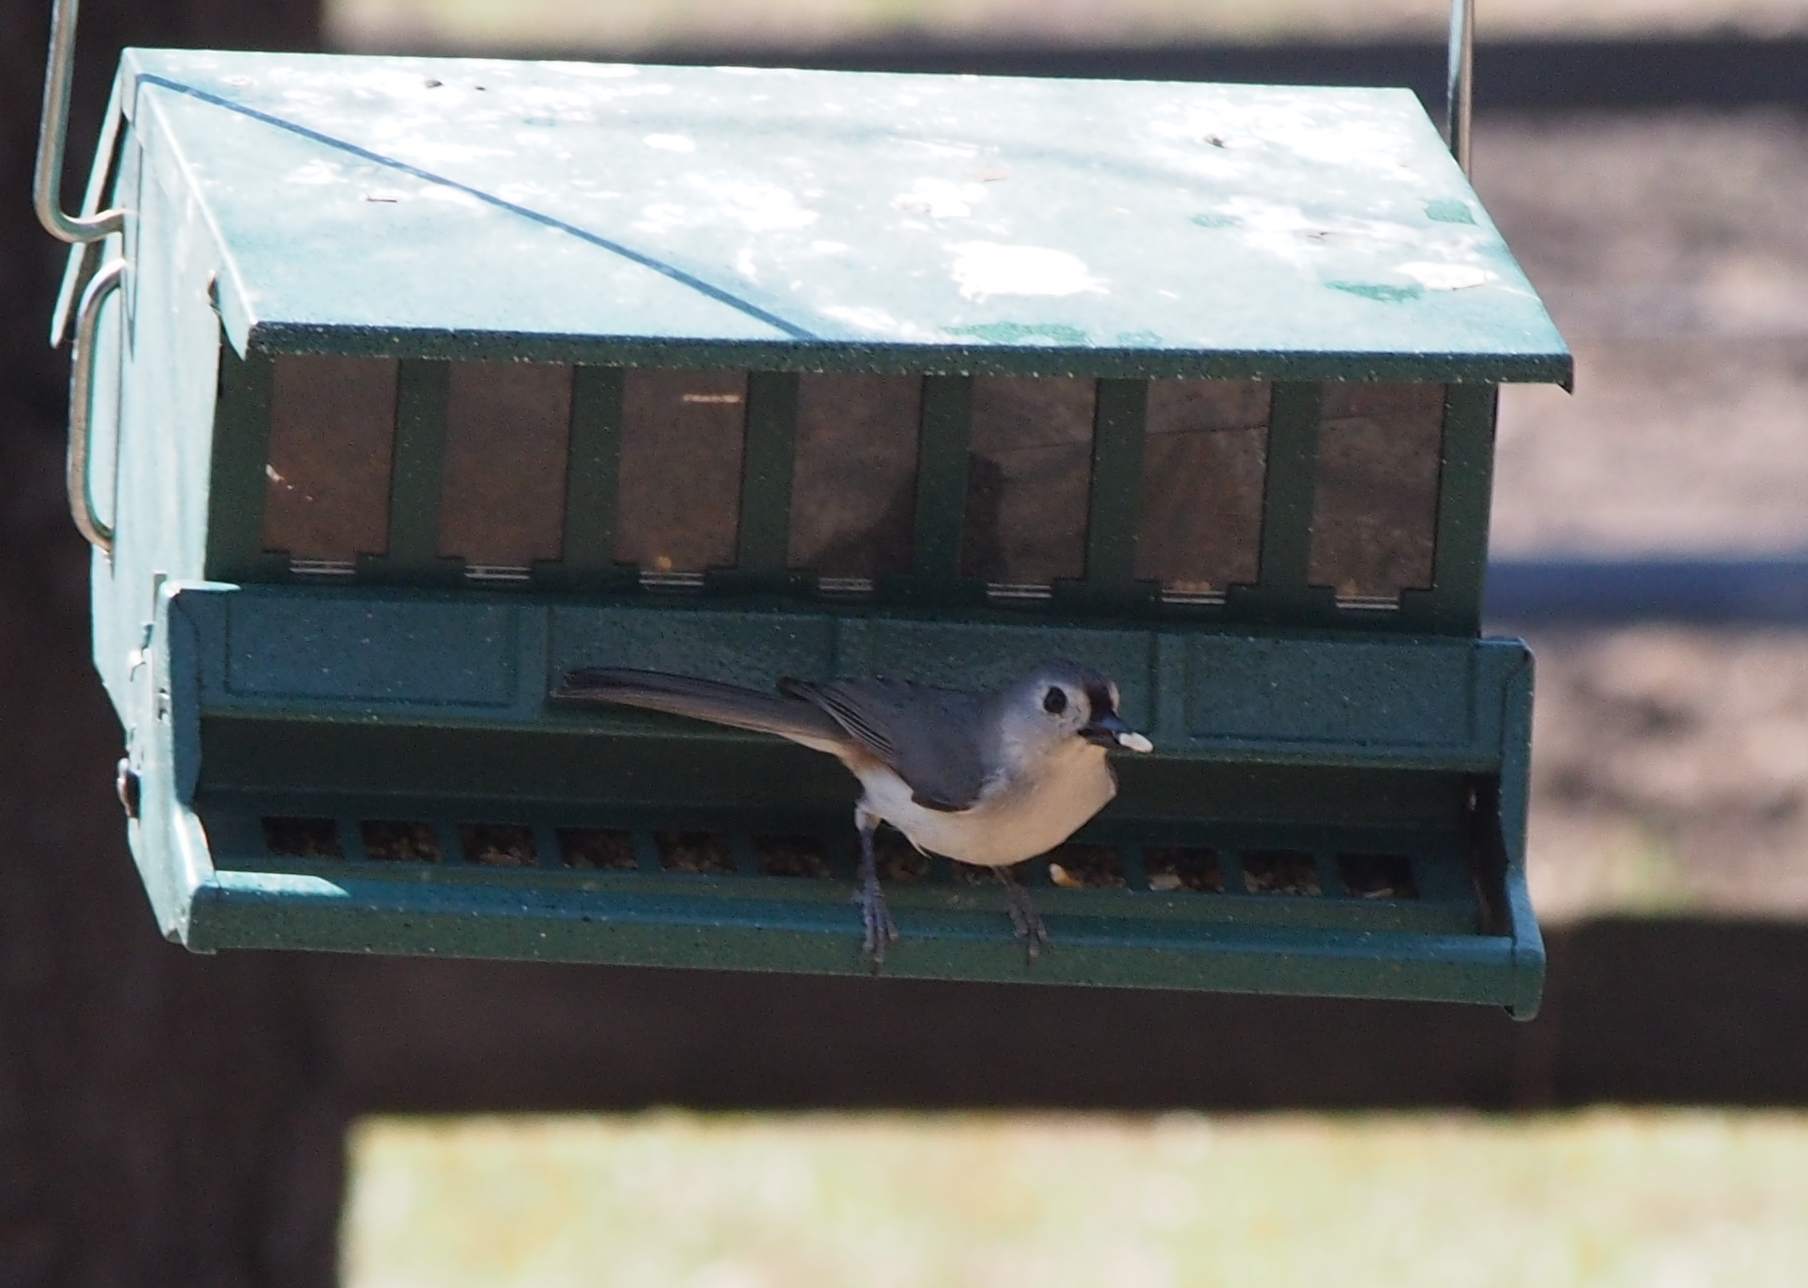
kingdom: Animalia
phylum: Chordata
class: Aves
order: Passeriformes
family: Paridae
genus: Baeolophus
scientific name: Baeolophus bicolor
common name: Tufted titmouse
